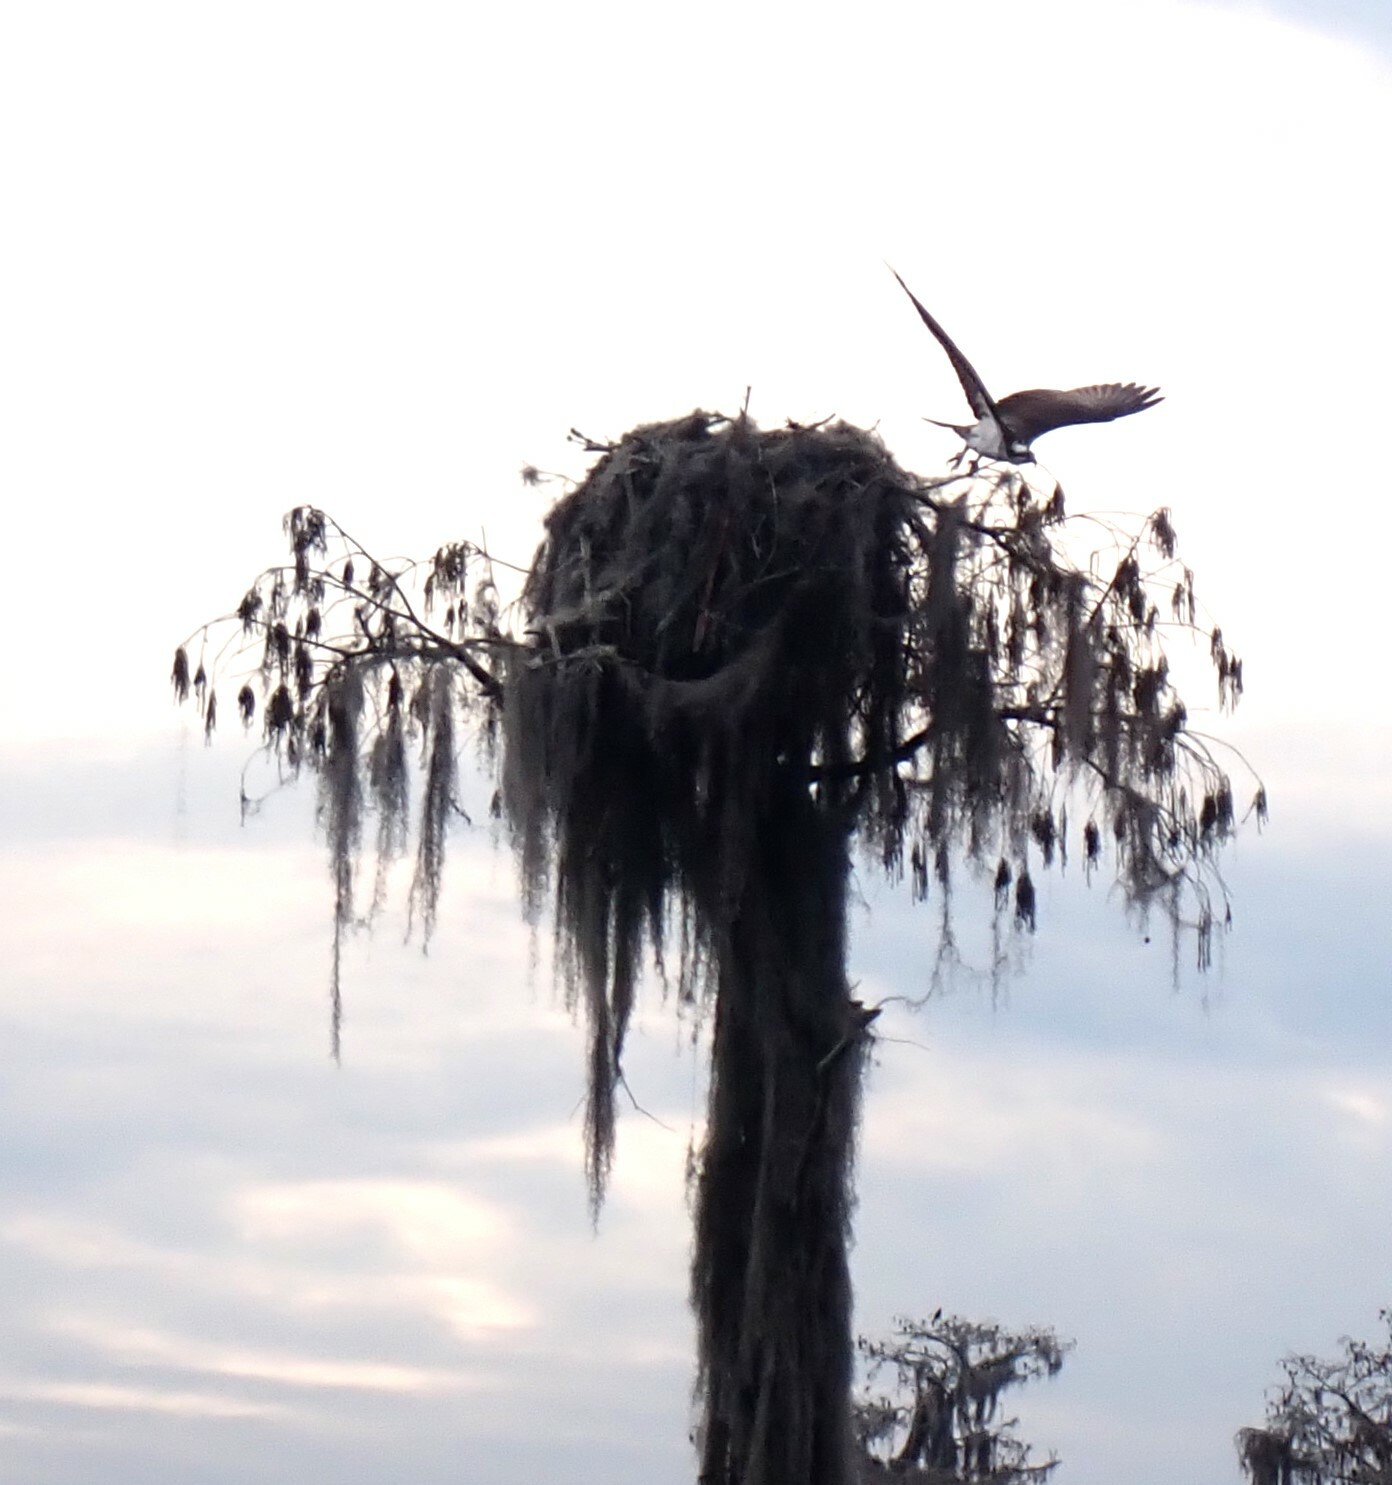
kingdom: Animalia
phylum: Chordata
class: Aves
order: Accipitriformes
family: Pandionidae
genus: Pandion
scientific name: Pandion haliaetus
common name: Osprey
